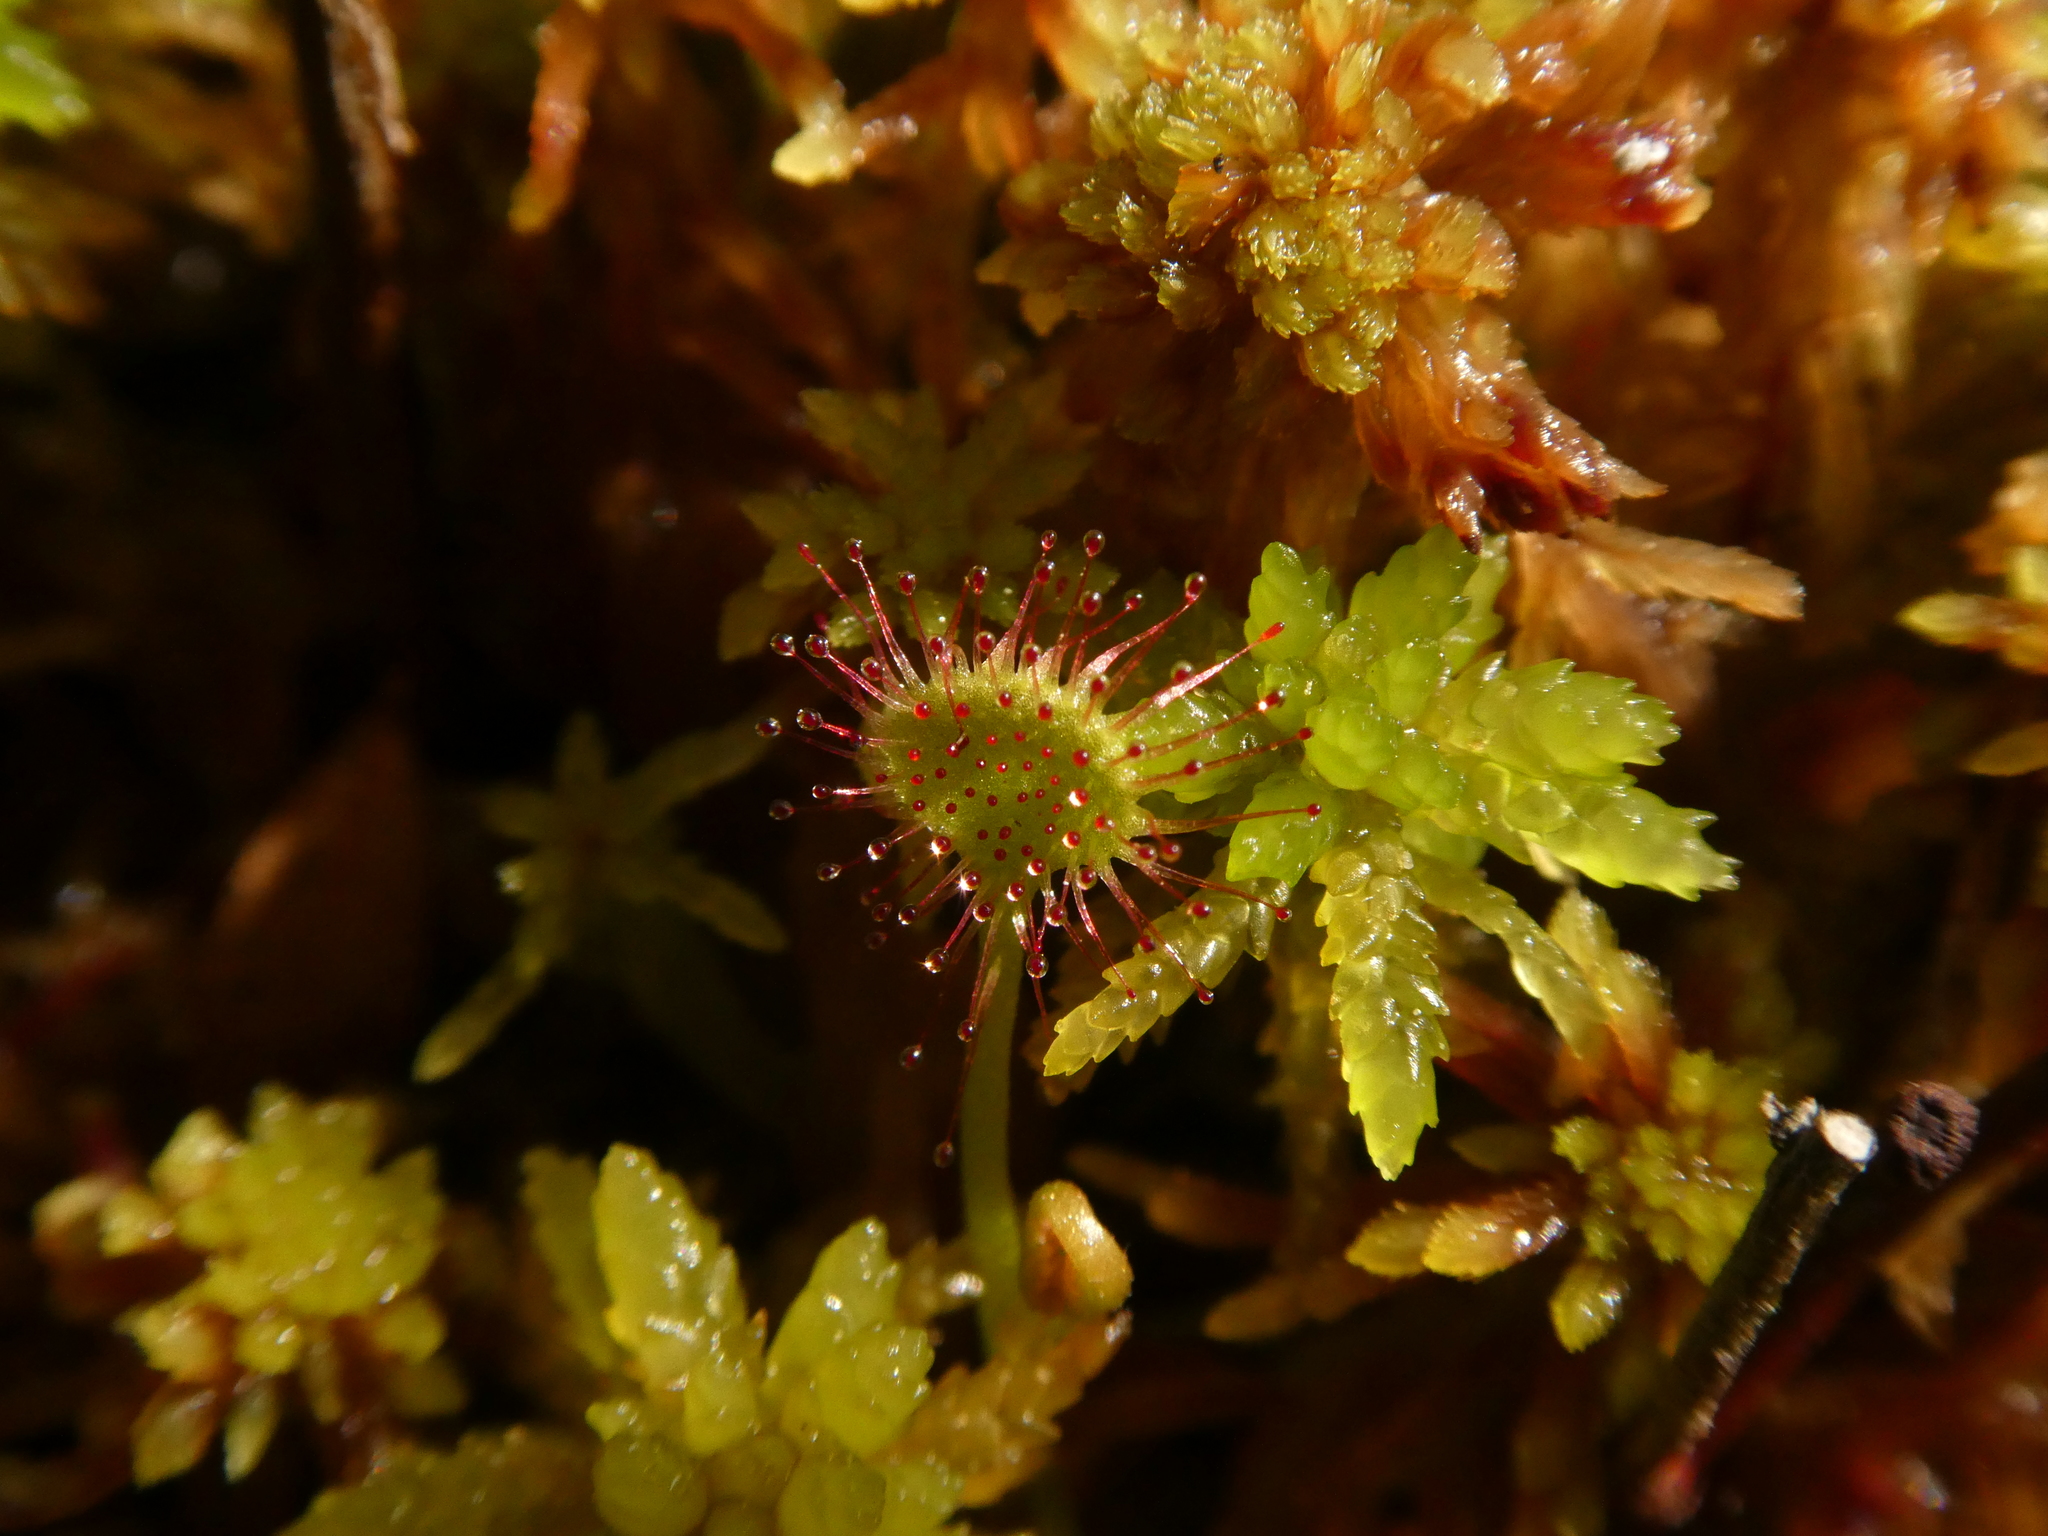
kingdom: Plantae
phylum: Tracheophyta
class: Magnoliopsida
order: Caryophyllales
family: Droseraceae
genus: Drosera
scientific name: Drosera rotundifolia
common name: Round-leaved sundew
